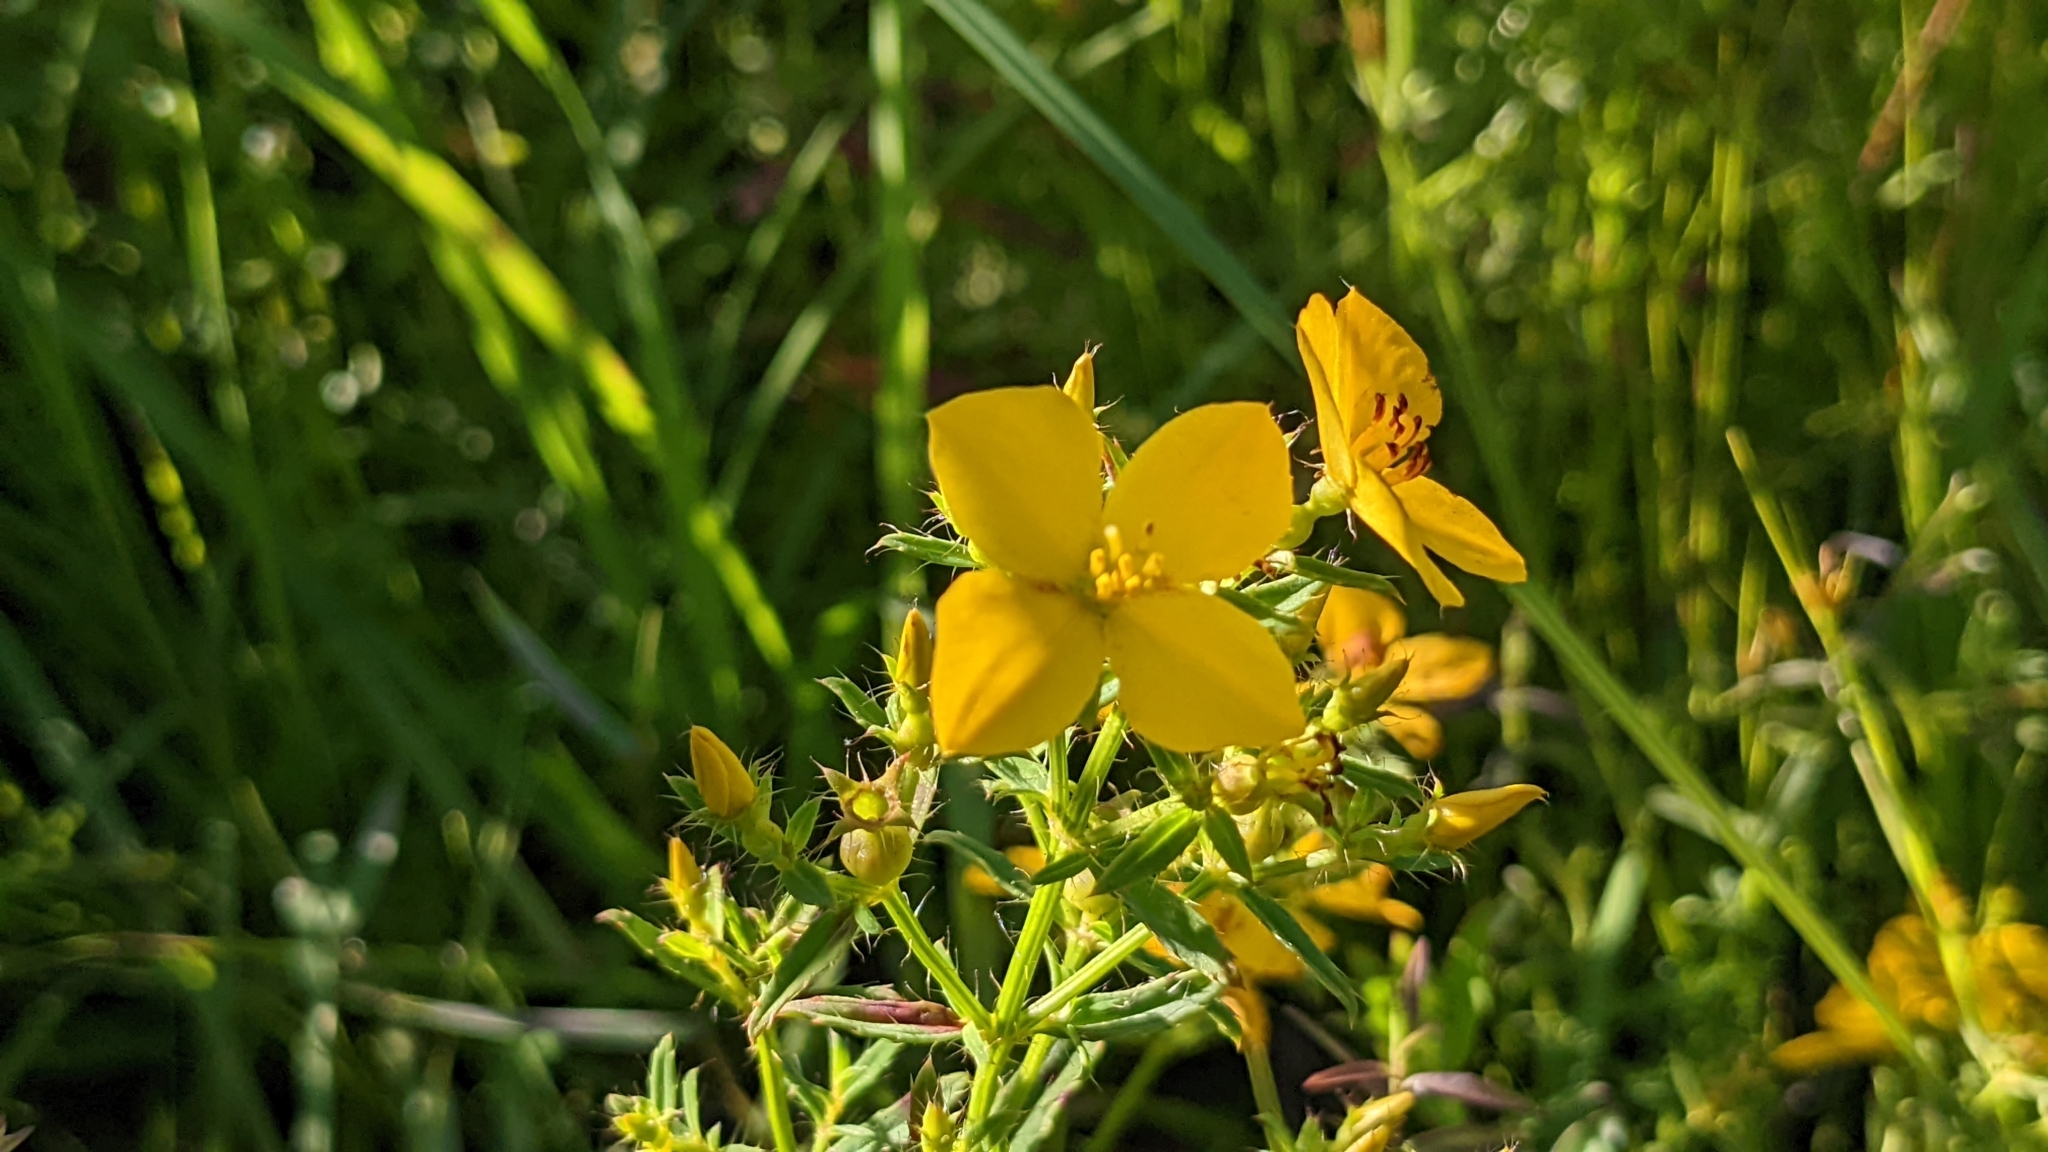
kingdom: Plantae
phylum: Tracheophyta
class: Magnoliopsida
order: Myrtales
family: Melastomataceae
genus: Rhexia
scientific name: Rhexia lutea
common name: Golden meadow-beauty
